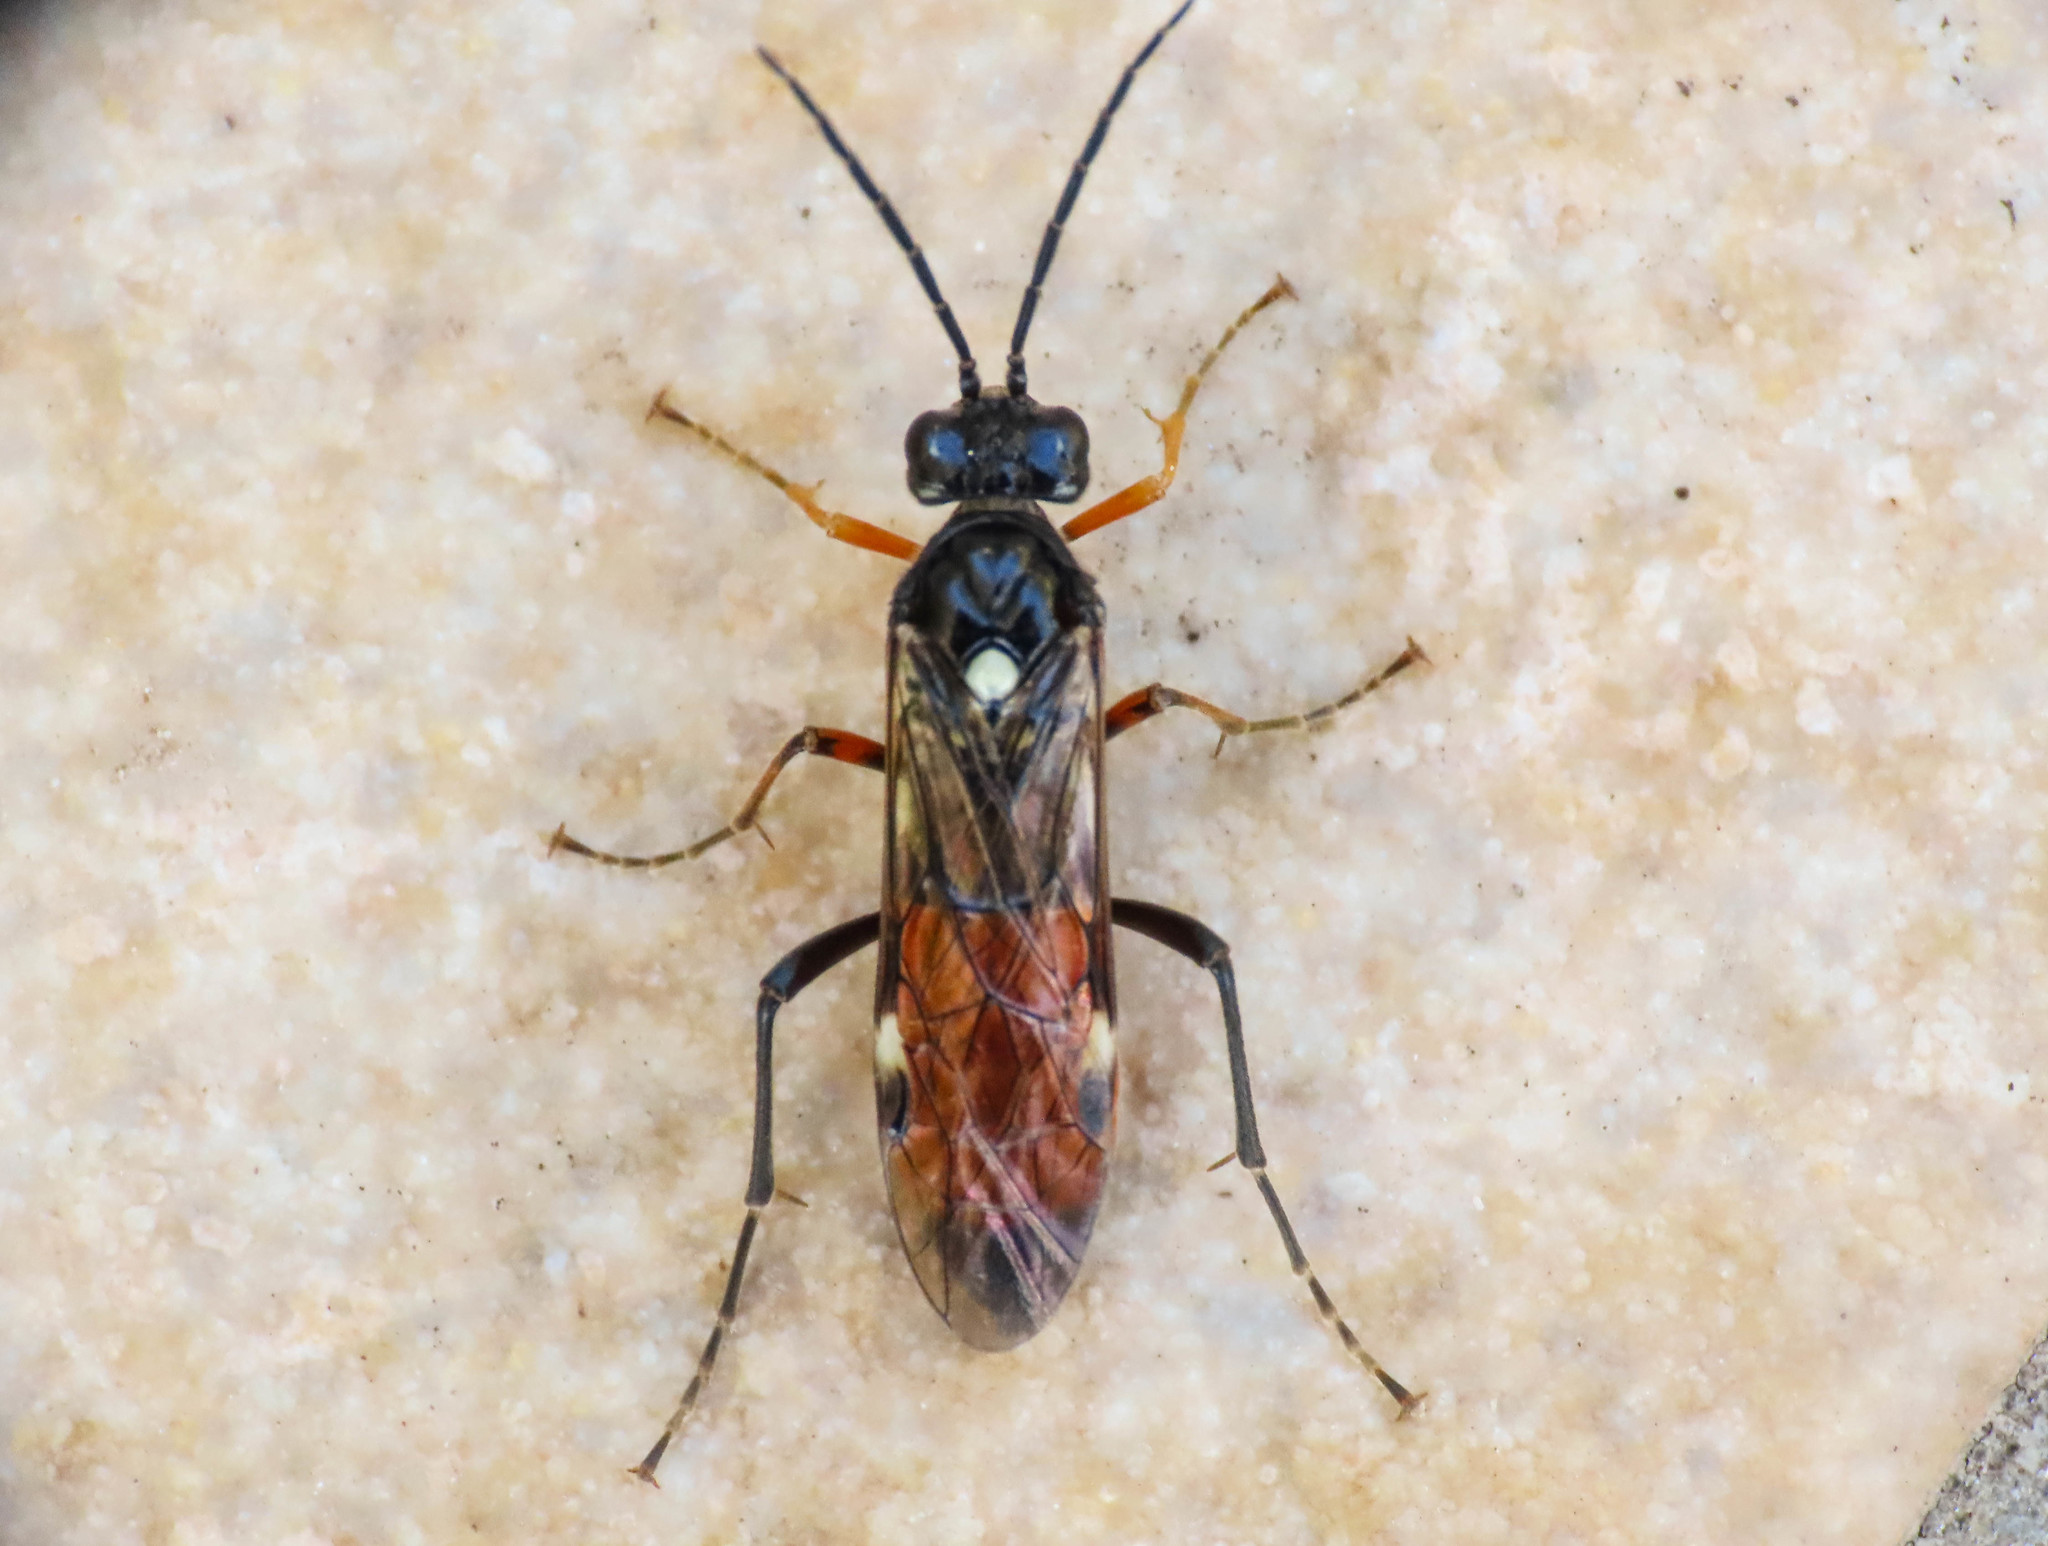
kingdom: Animalia
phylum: Arthropoda
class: Insecta
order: Hymenoptera
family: Tenthredinidae
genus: Tenthredopsis
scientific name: Tenthredopsis floricola
